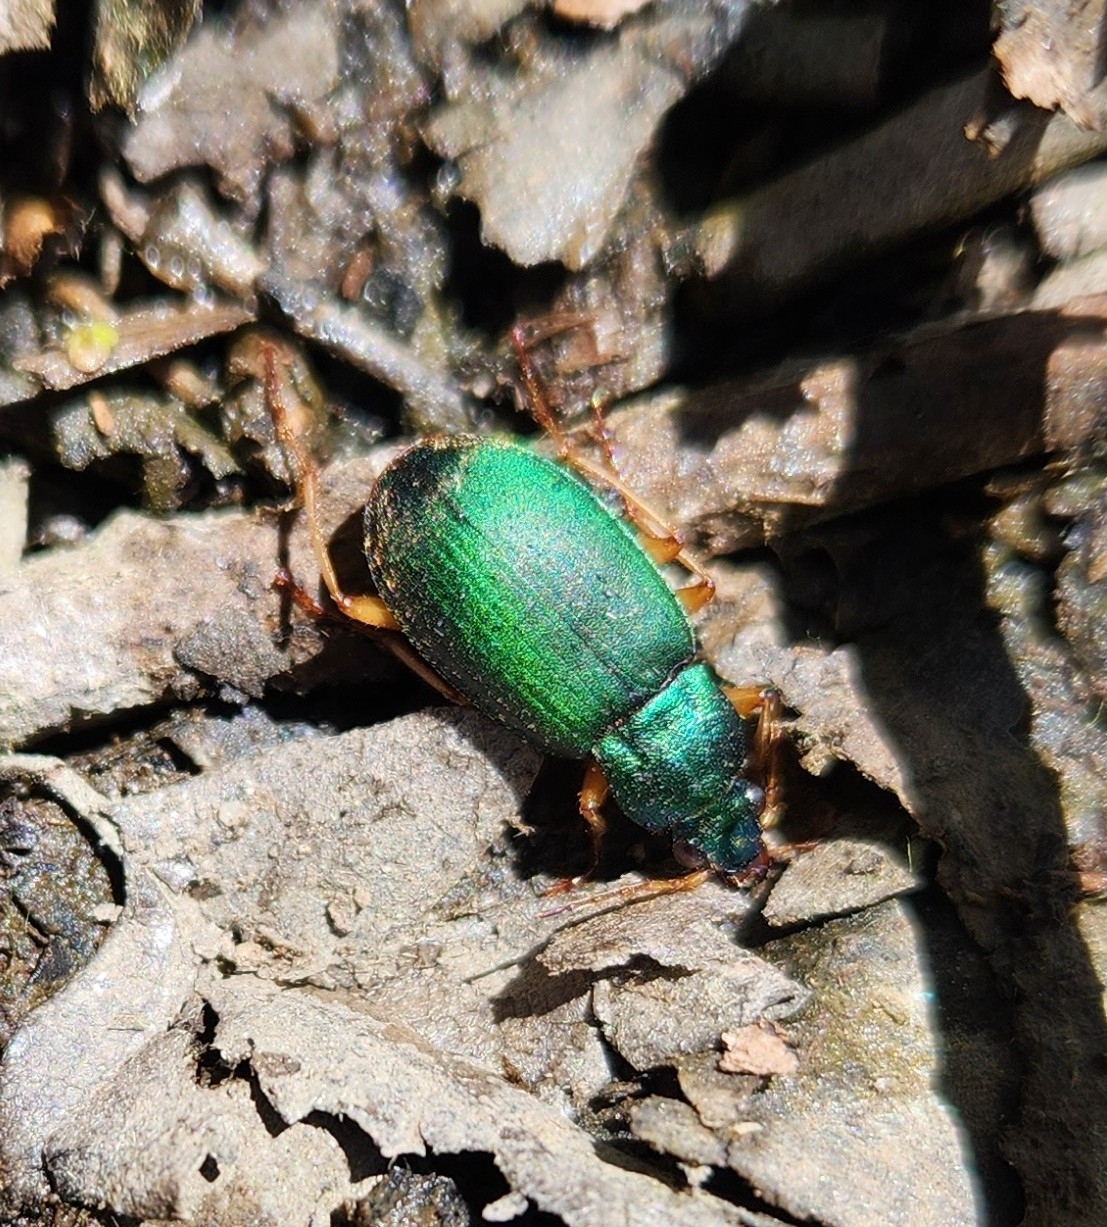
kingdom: Animalia
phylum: Arthropoda
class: Insecta
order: Coleoptera
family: Carabidae
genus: Chlaenius
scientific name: Chlaenius sericeus
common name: Green pubescent ground beetle
